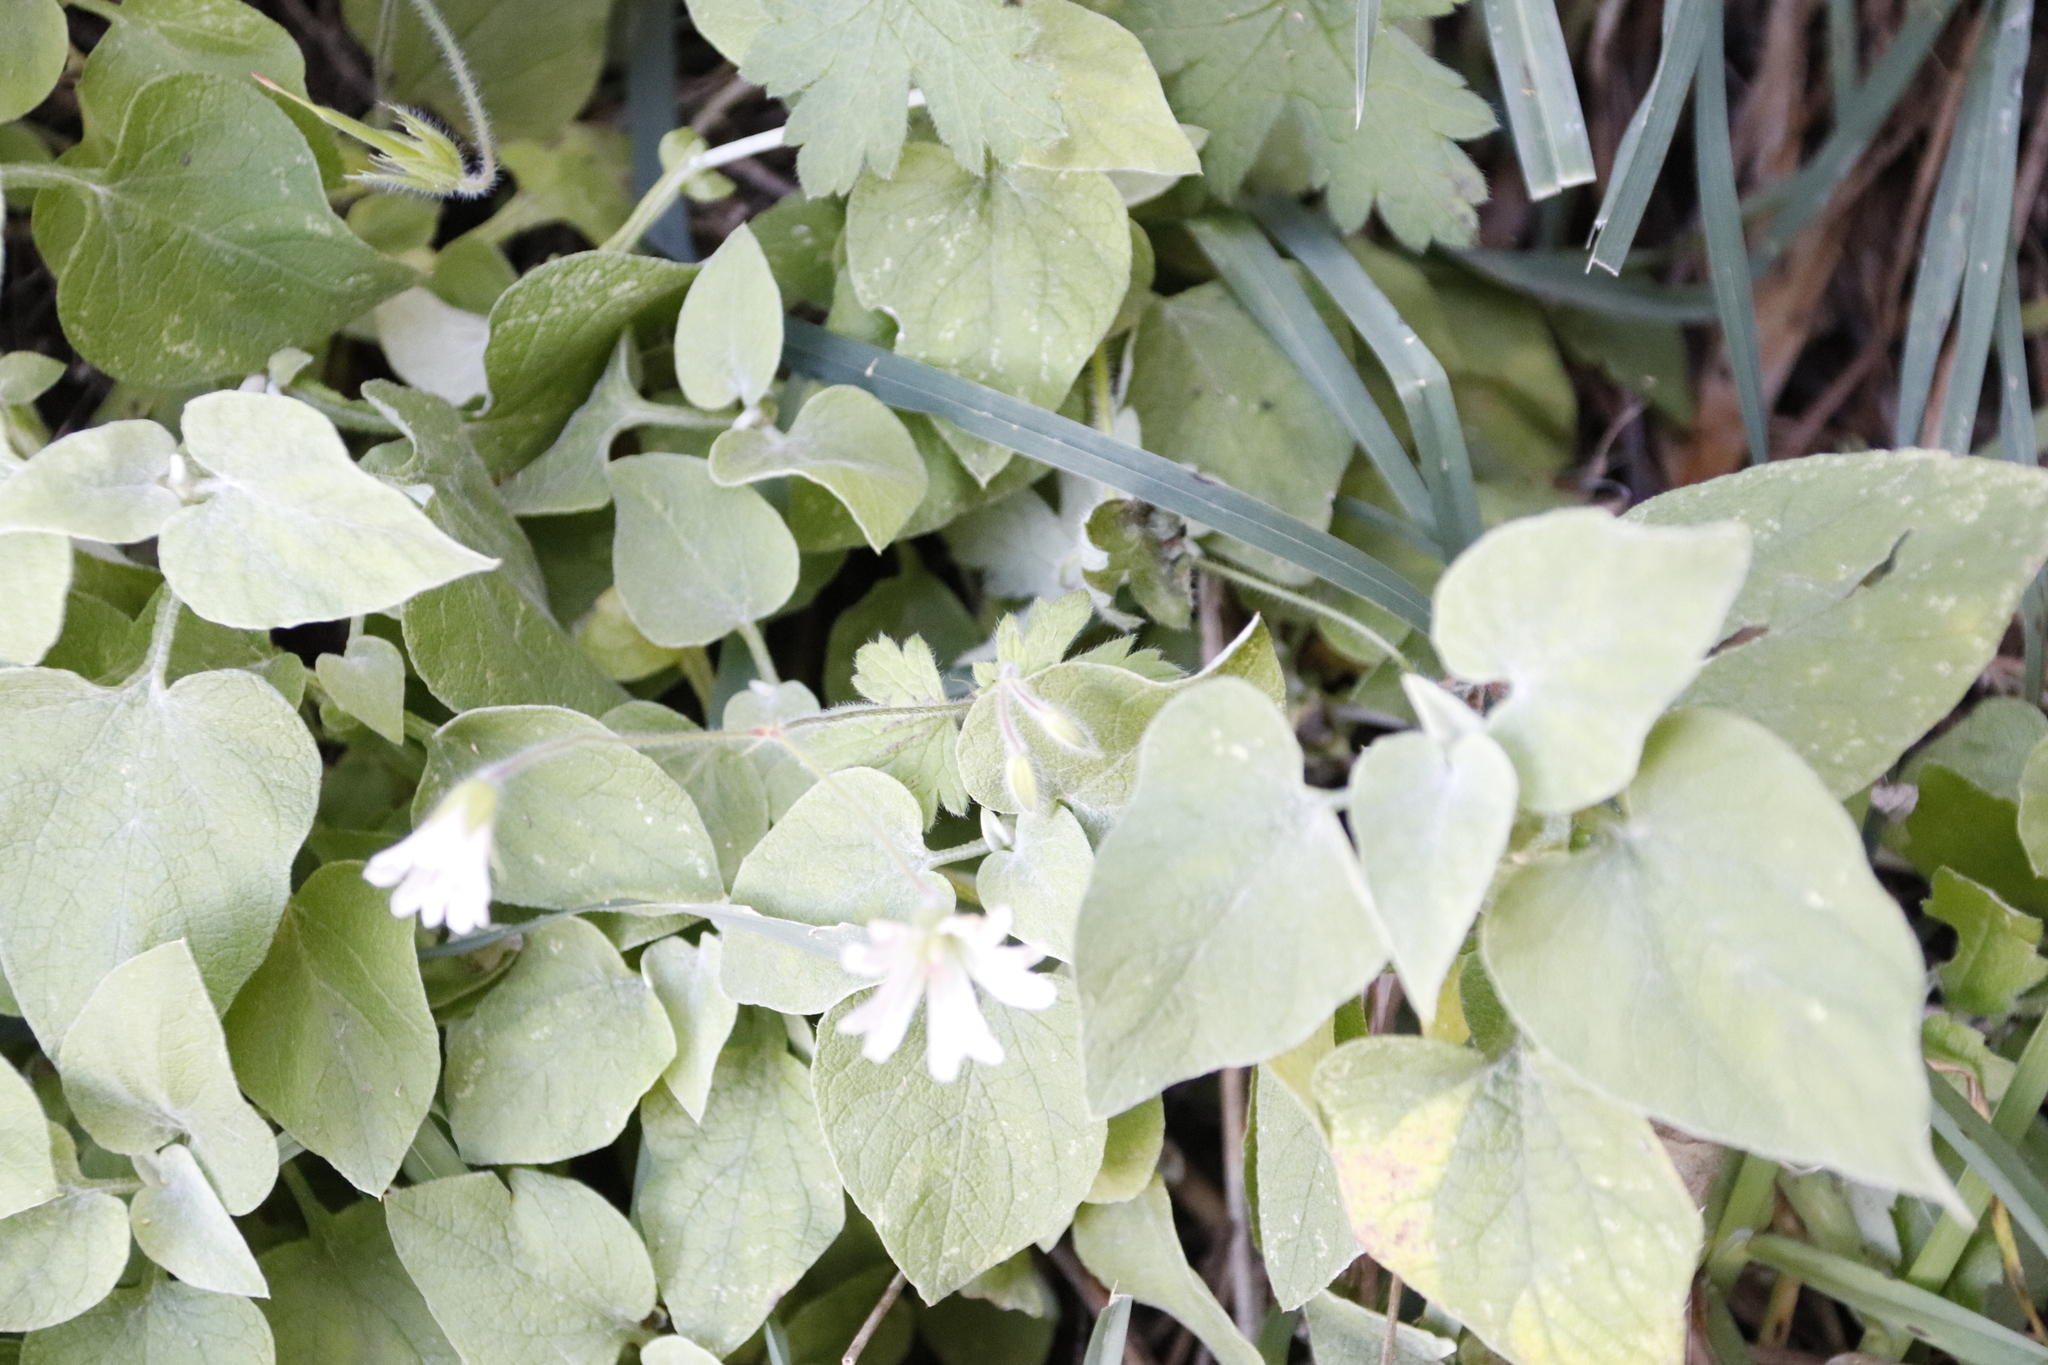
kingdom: Plantae
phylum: Tracheophyta
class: Magnoliopsida
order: Asterales
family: Asteraceae
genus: Helichrysum
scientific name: Helichrysum hypoleucum
